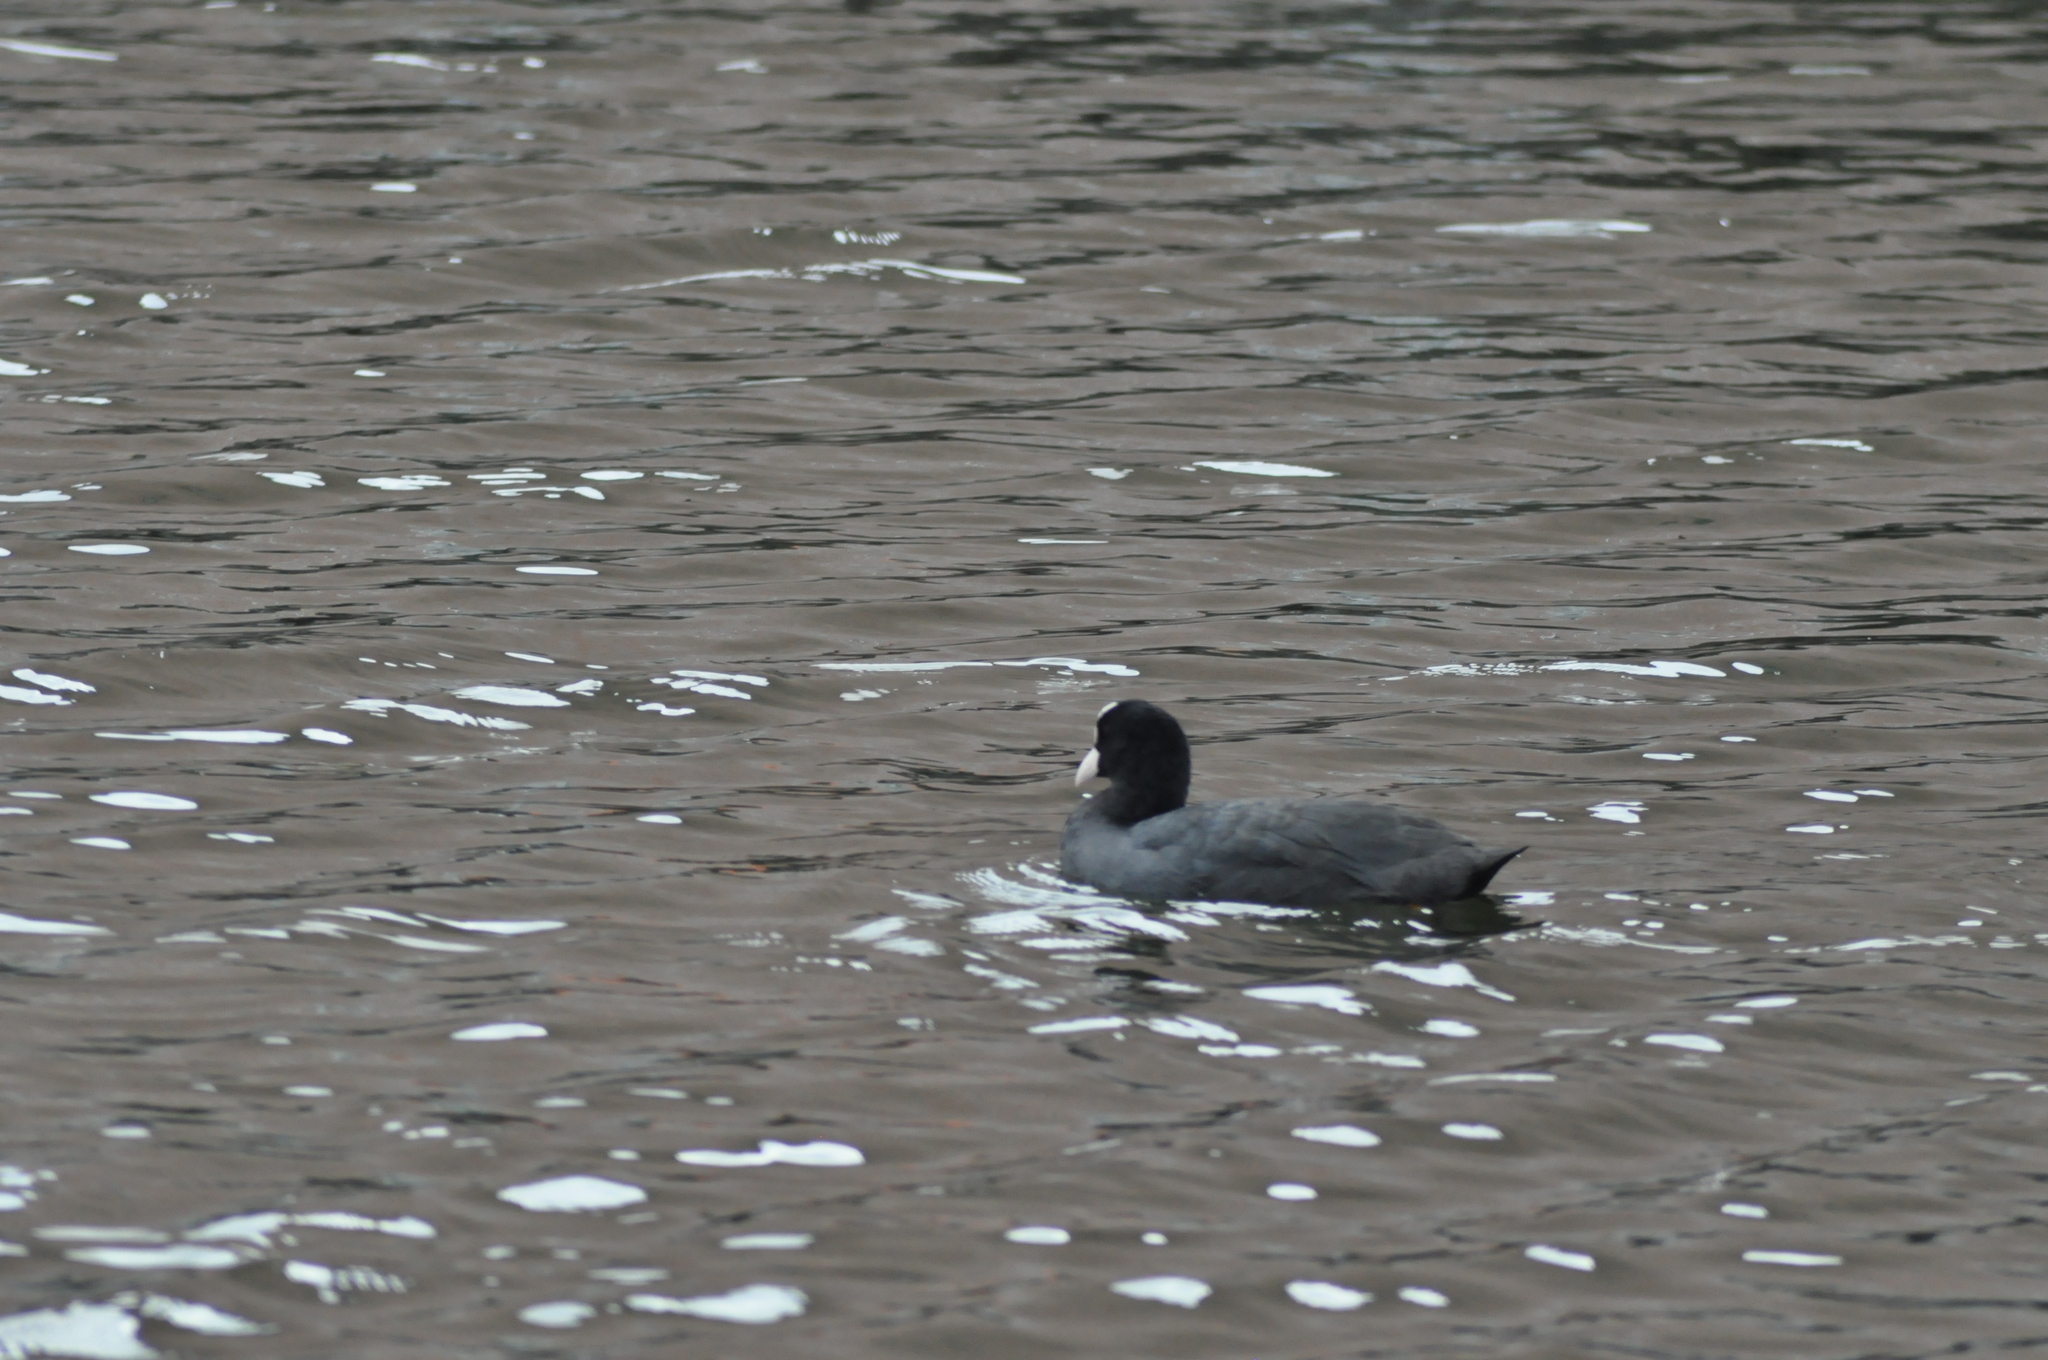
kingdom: Animalia
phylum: Chordata
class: Aves
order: Gruiformes
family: Rallidae
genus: Fulica
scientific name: Fulica atra
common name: Eurasian coot
